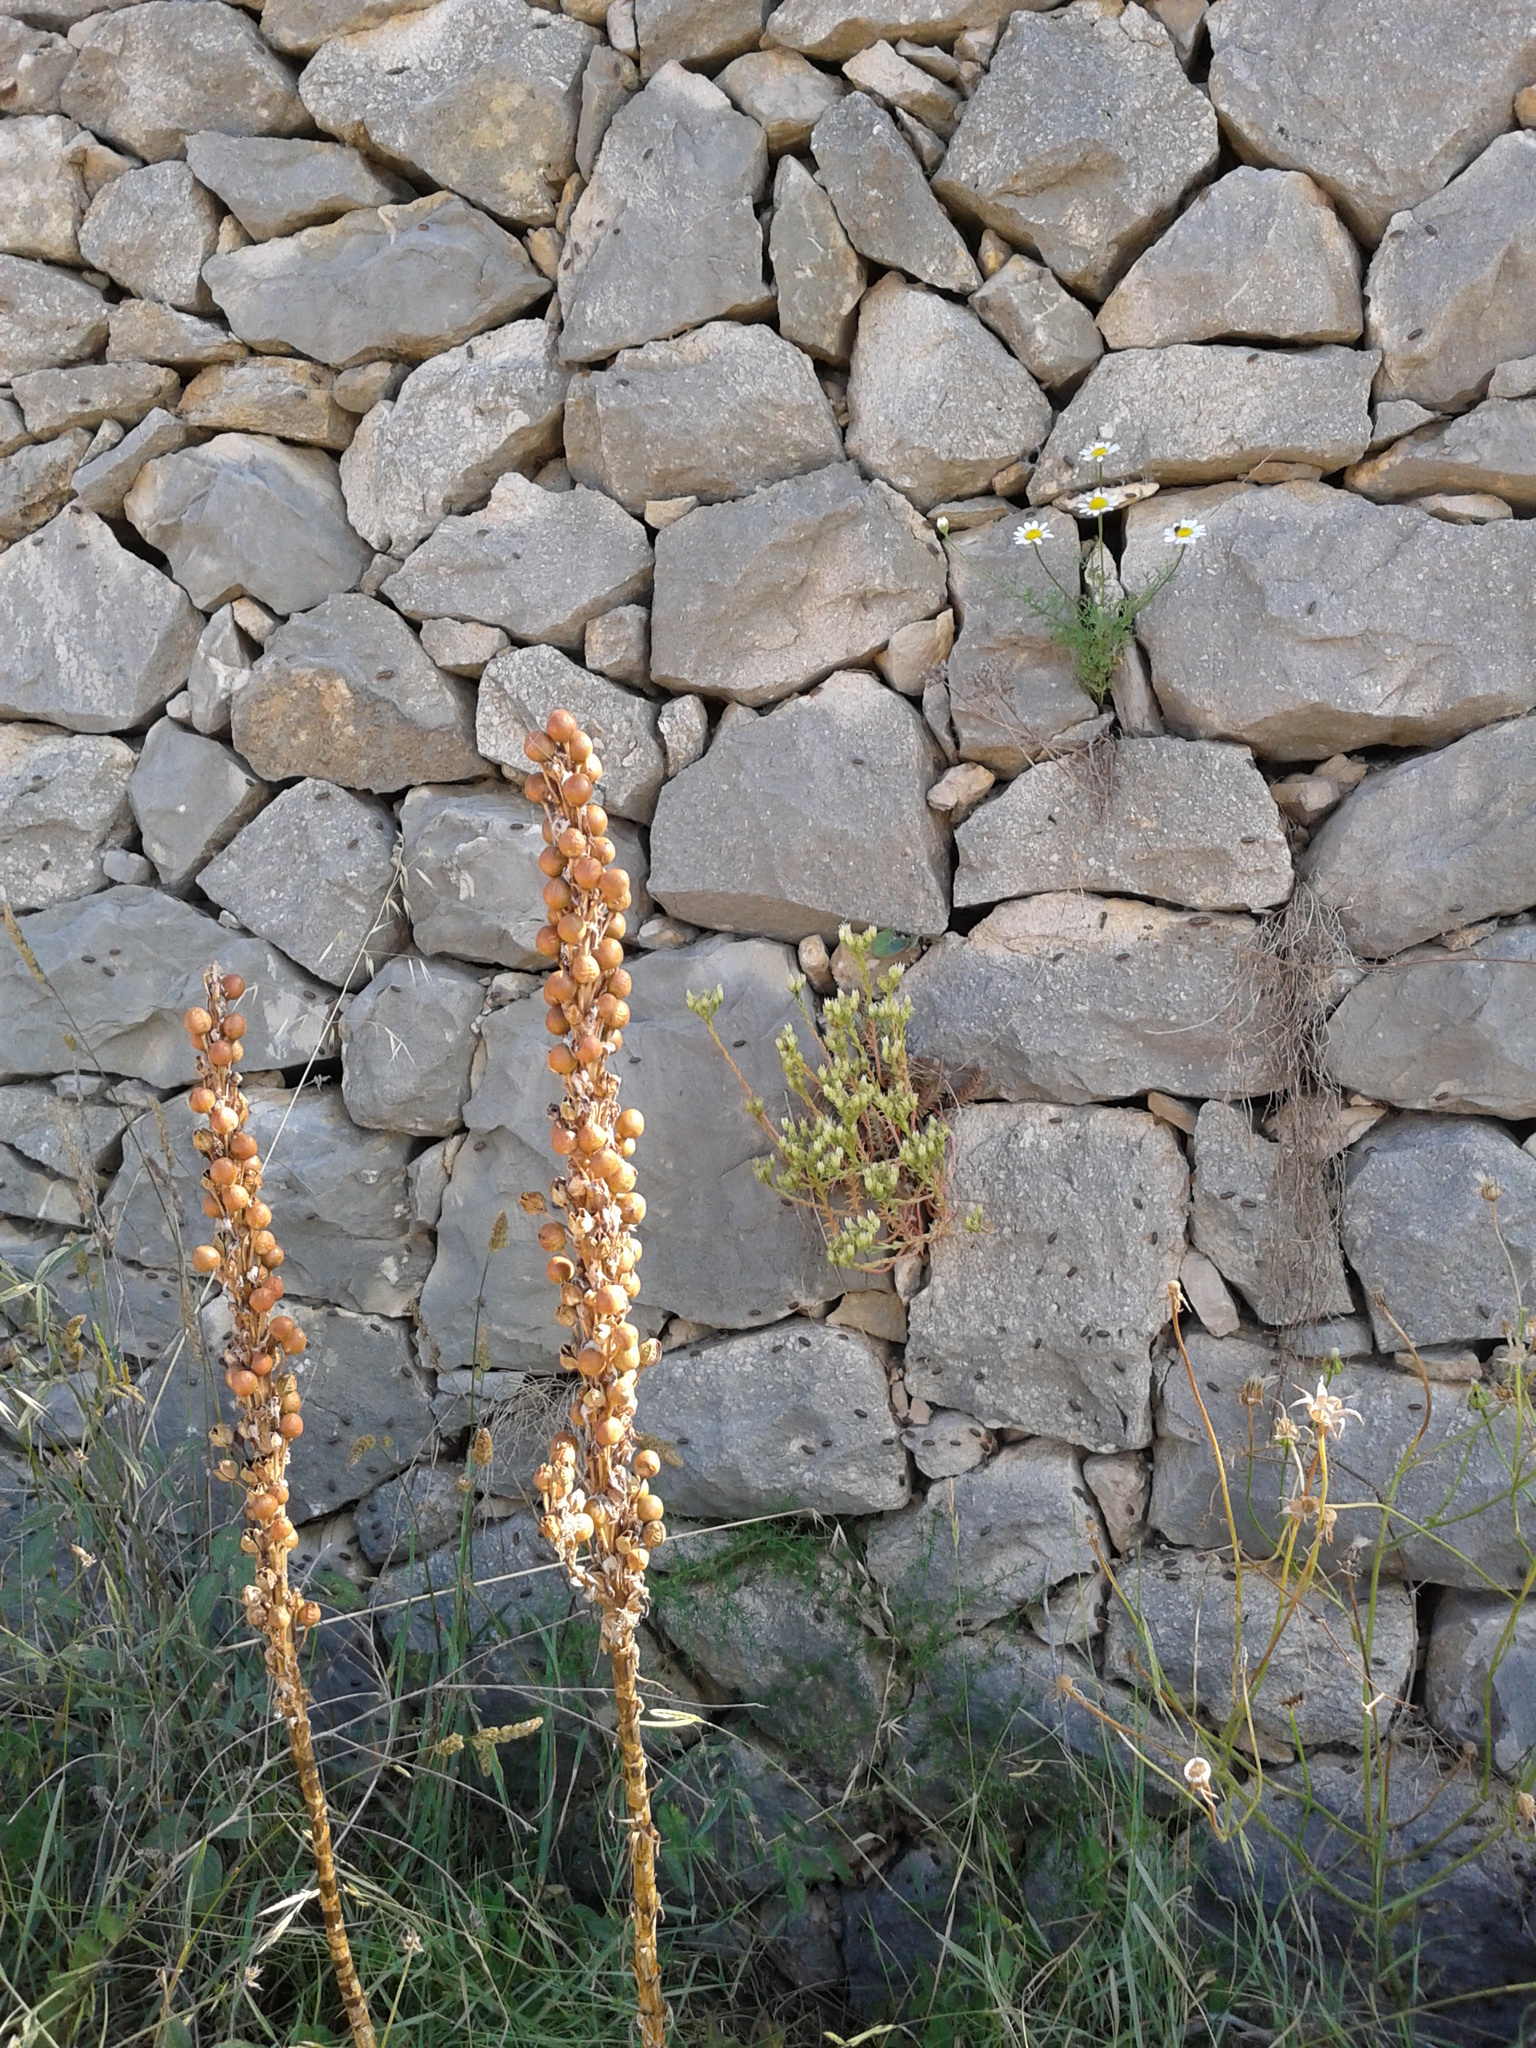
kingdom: Plantae
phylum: Tracheophyta
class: Liliopsida
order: Asparagales
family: Asphodelaceae
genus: Asphodeline
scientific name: Asphodeline lutea
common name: Yellow asphodel
